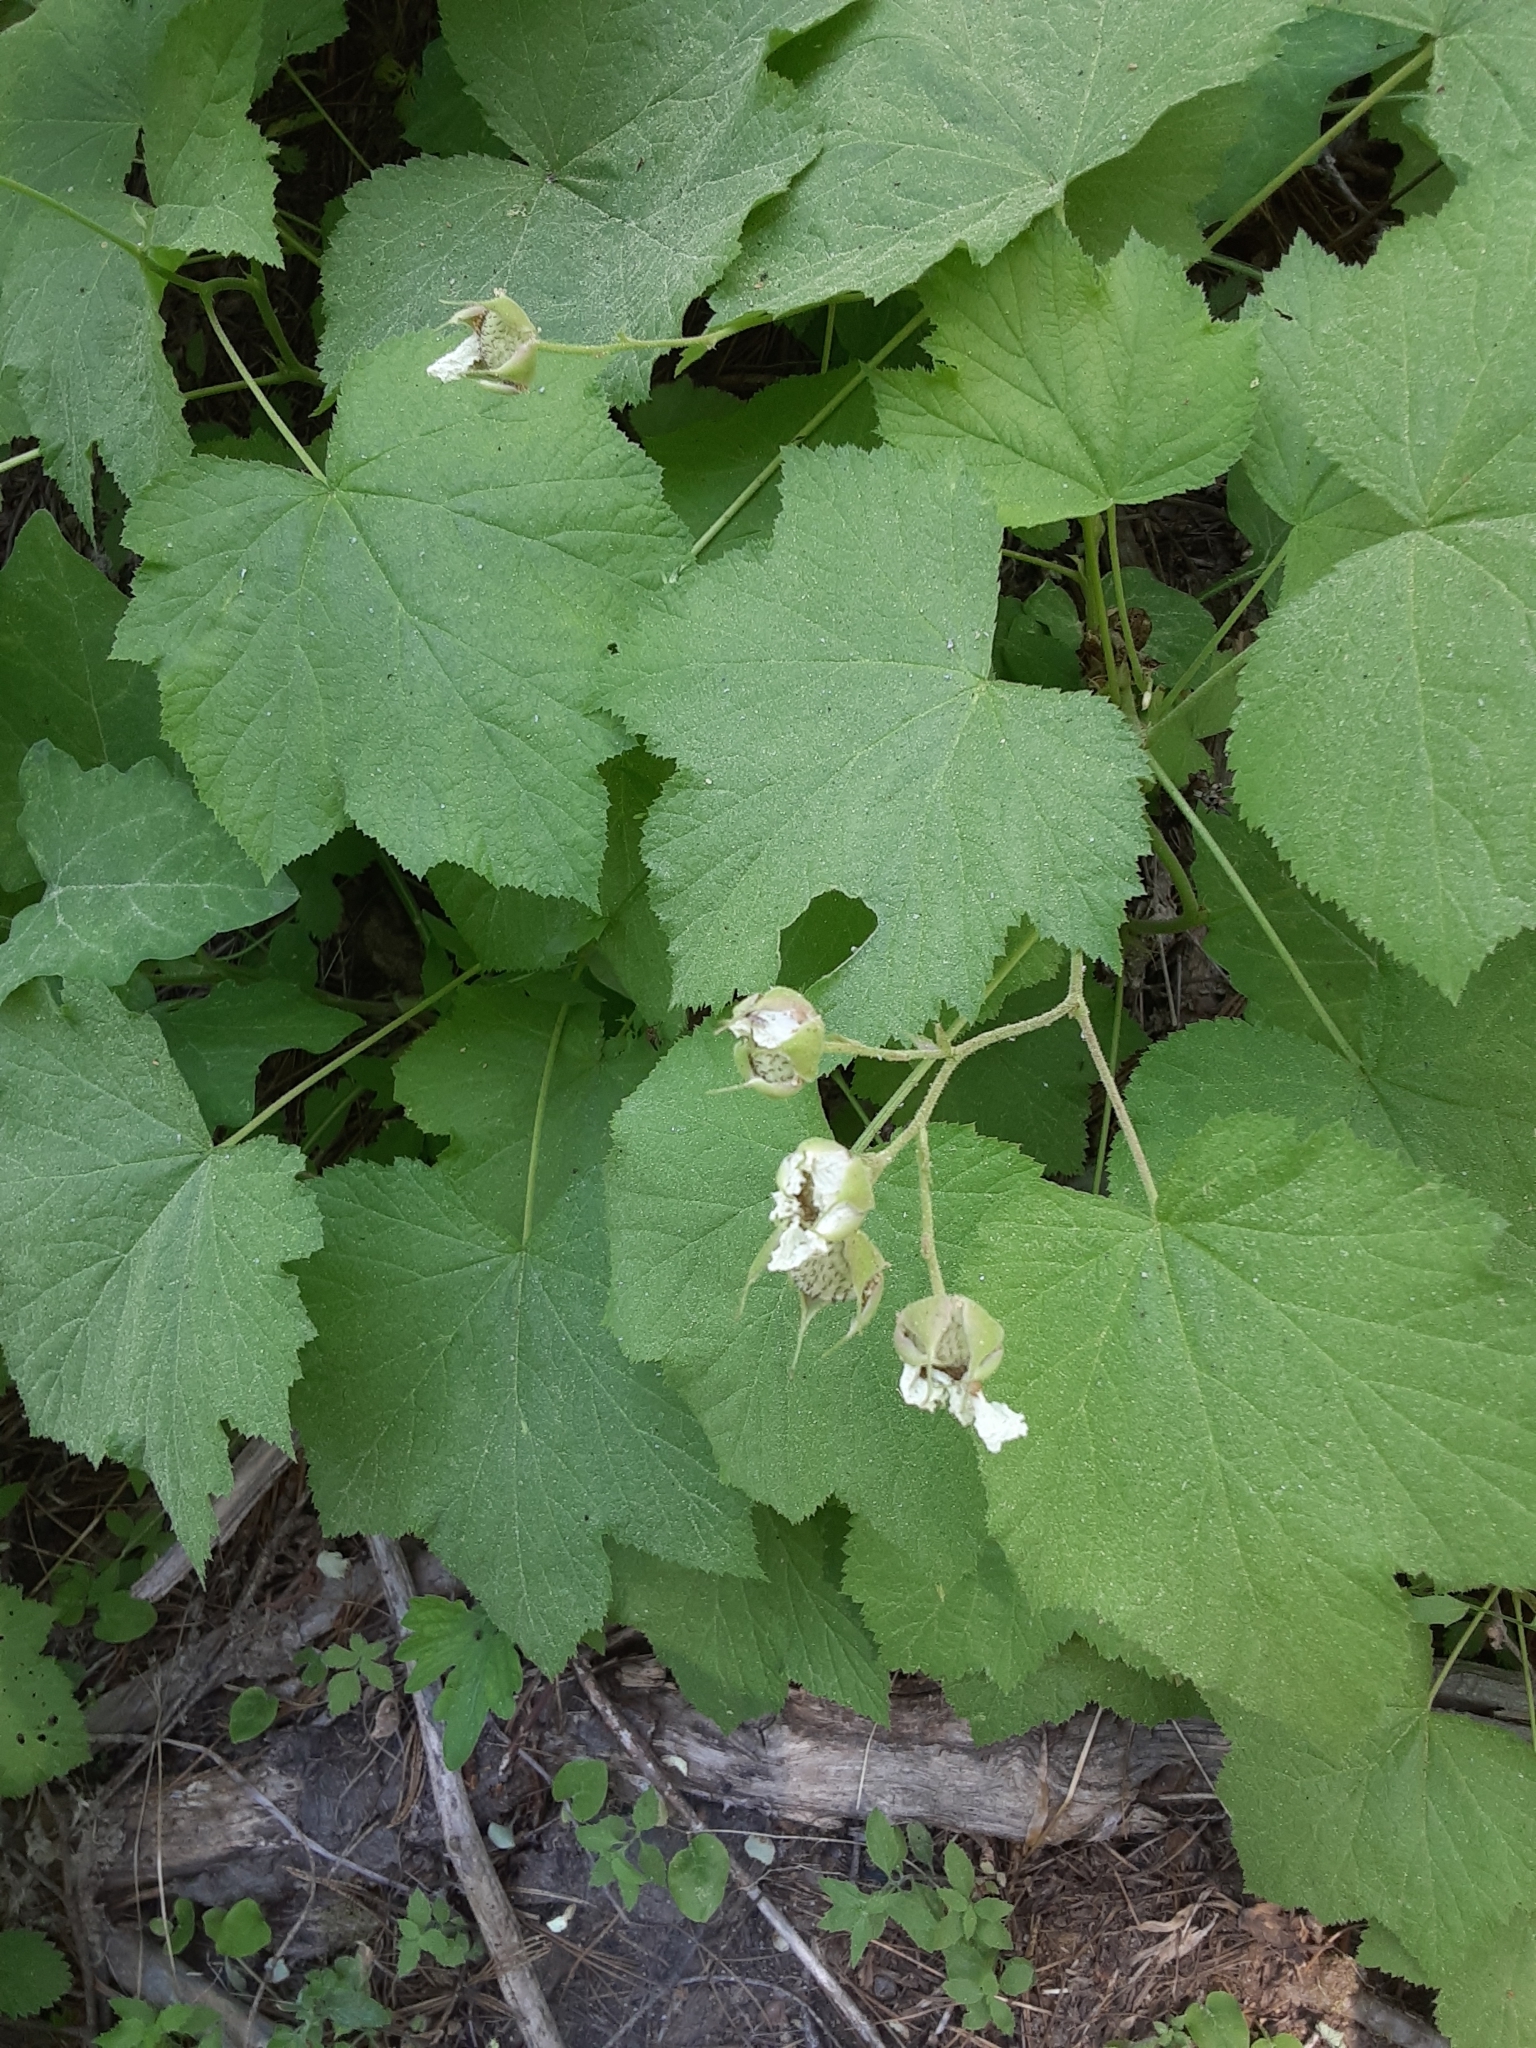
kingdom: Plantae
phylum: Tracheophyta
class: Magnoliopsida
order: Rosales
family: Rosaceae
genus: Rubus
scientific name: Rubus parviflorus
